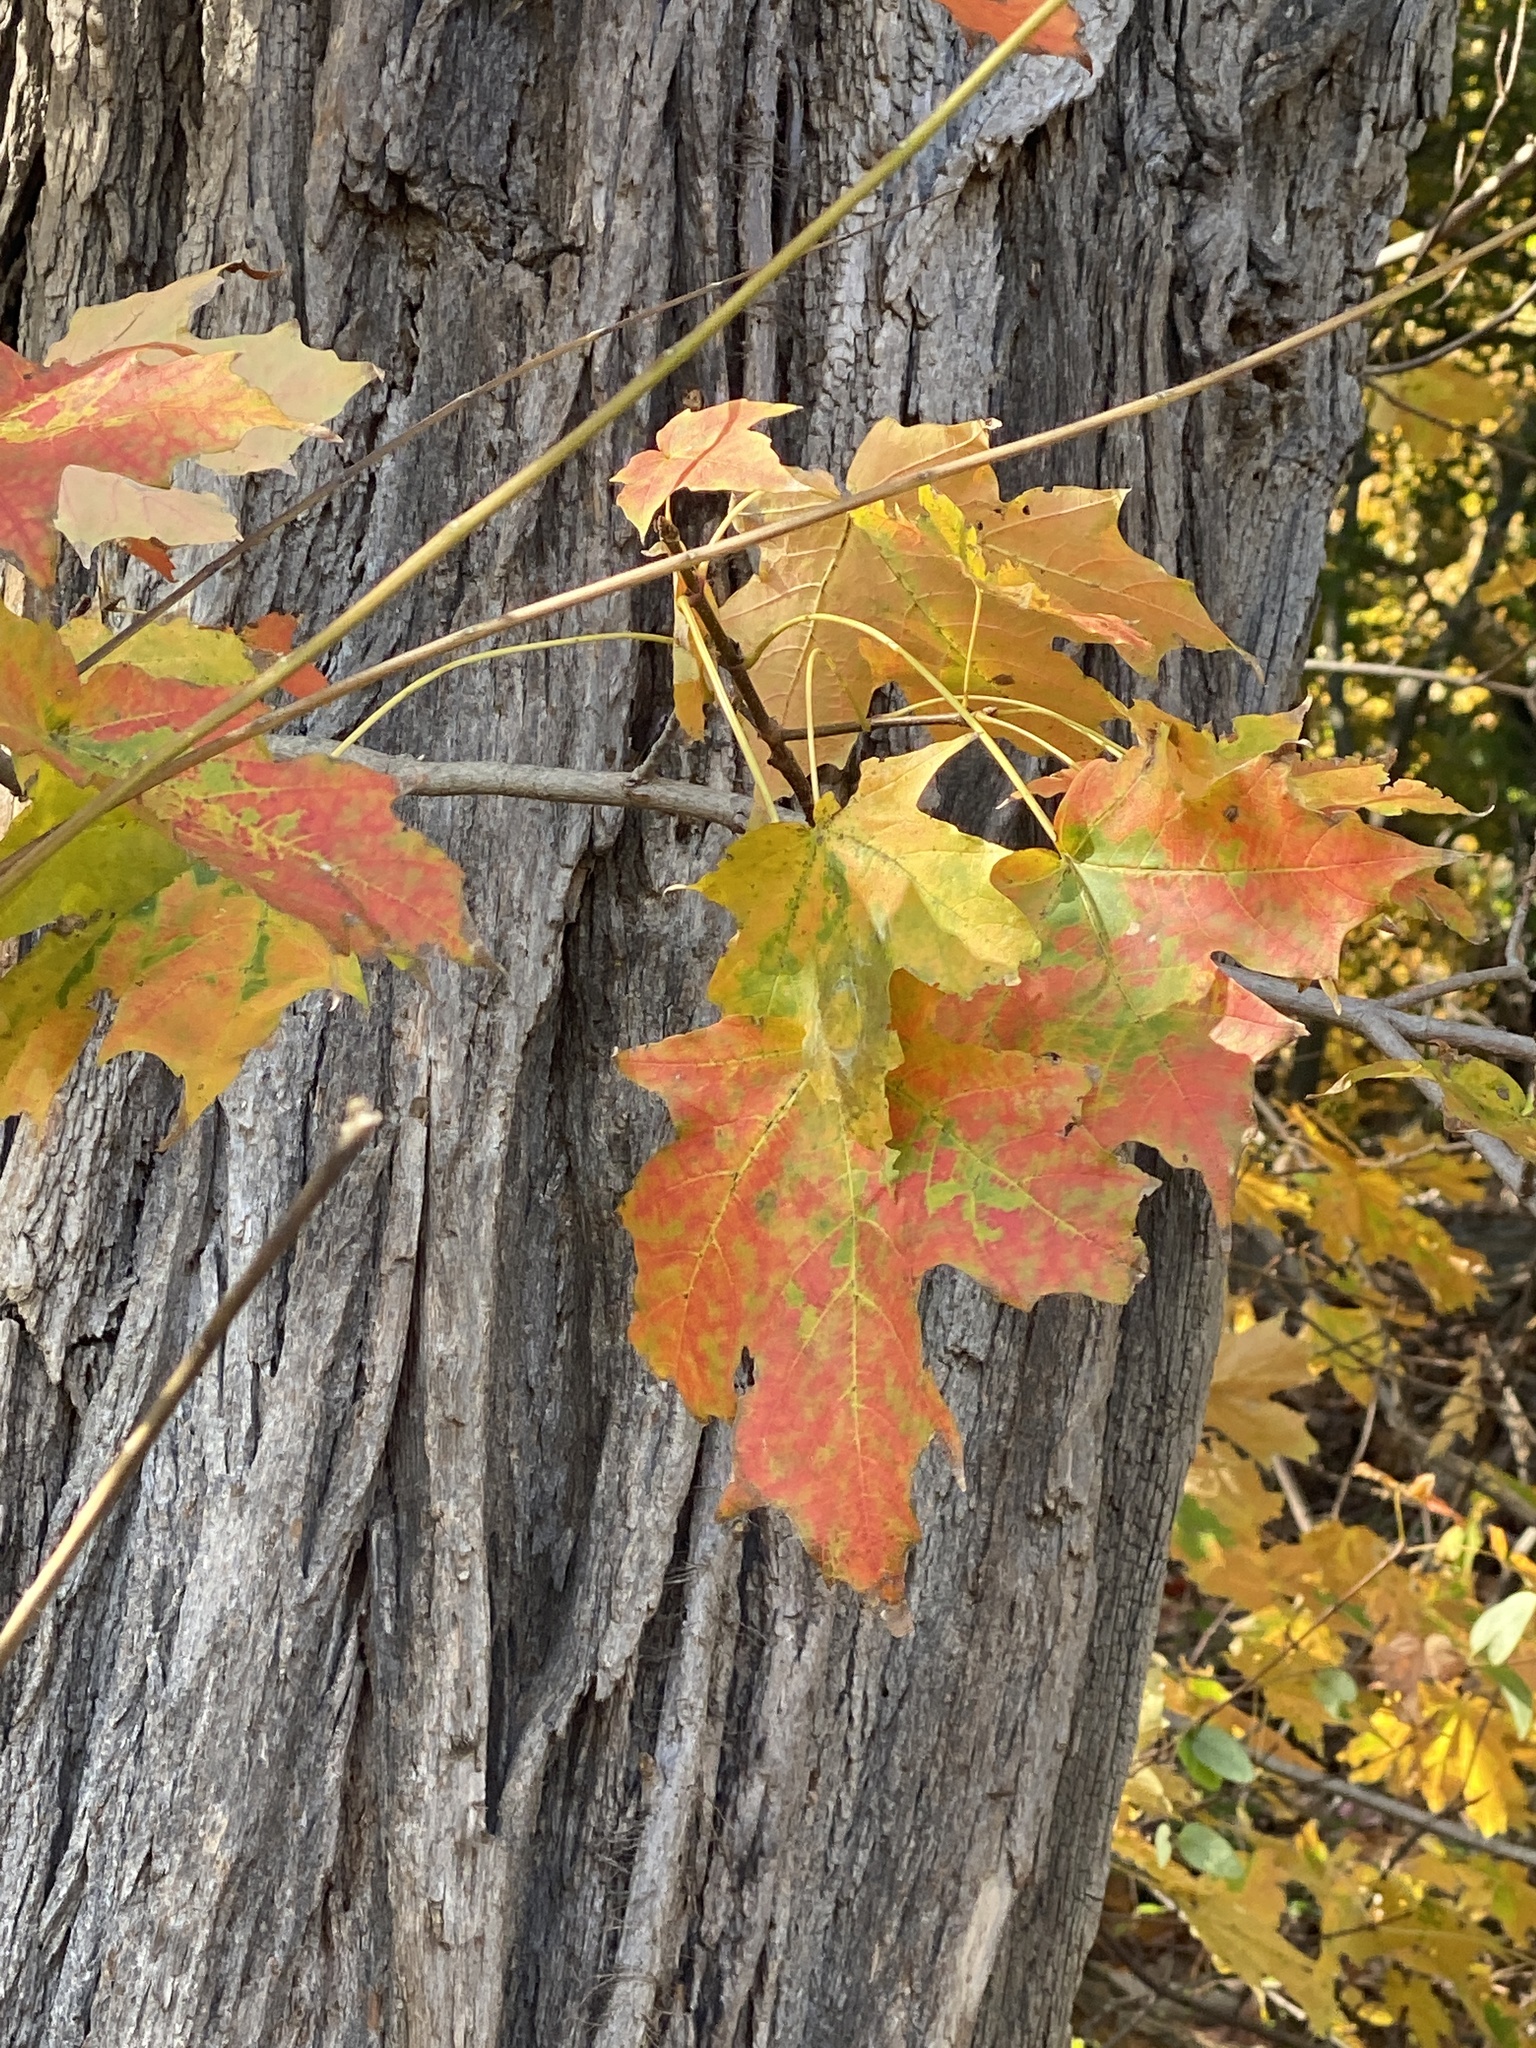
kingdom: Plantae
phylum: Tracheophyta
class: Magnoliopsida
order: Sapindales
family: Sapindaceae
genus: Acer
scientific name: Acer saccharum
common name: Sugar maple
